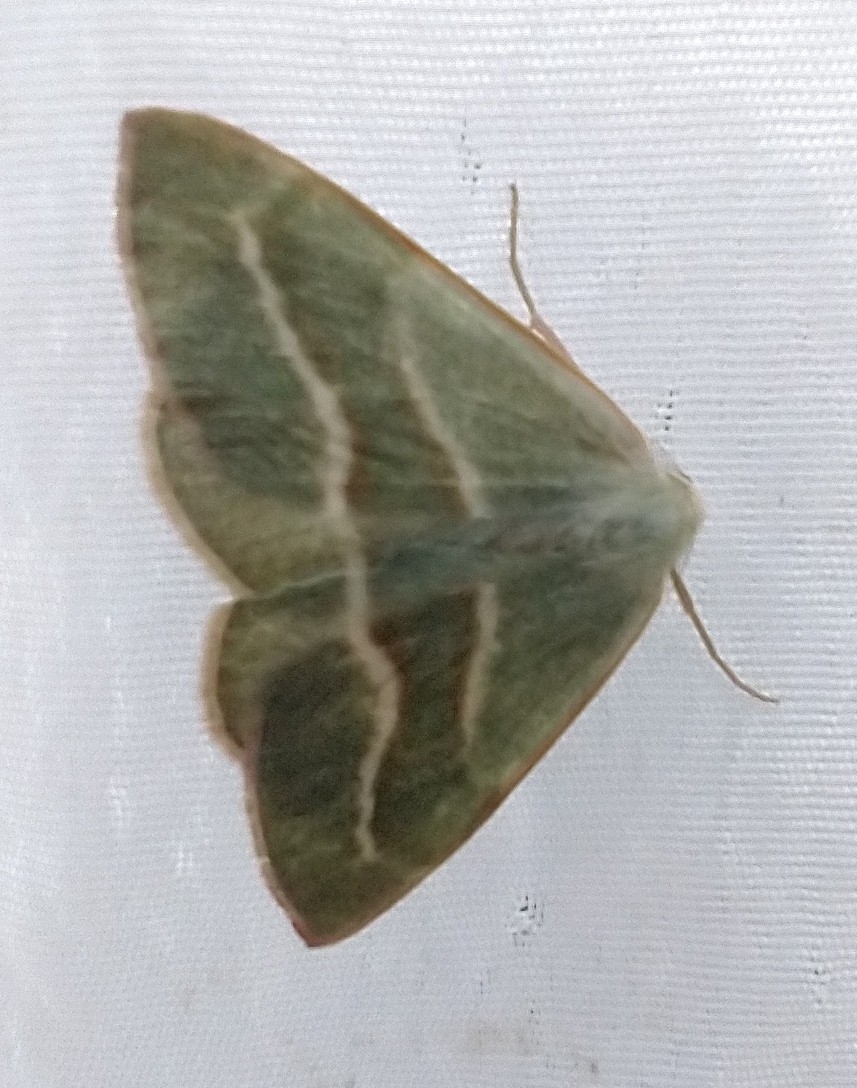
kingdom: Animalia
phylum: Arthropoda
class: Insecta
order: Lepidoptera
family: Geometridae
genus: Hylaea
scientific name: Hylaea fasciaria
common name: Barred red
